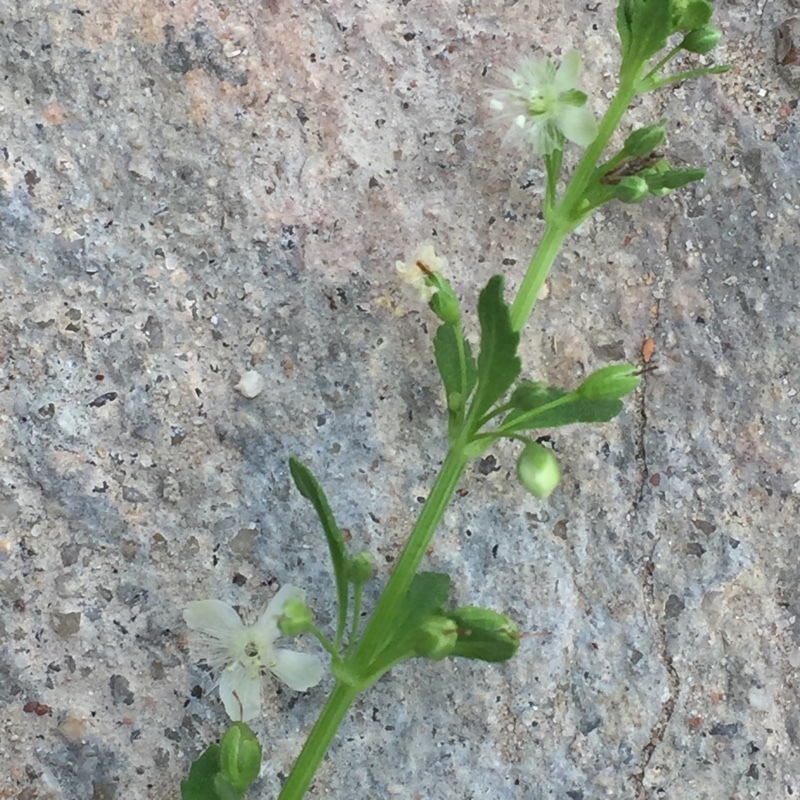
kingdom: Plantae
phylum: Tracheophyta
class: Magnoliopsida
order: Lamiales
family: Plantaginaceae
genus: Scoparia
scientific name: Scoparia dulcis
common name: Scoparia-weed
